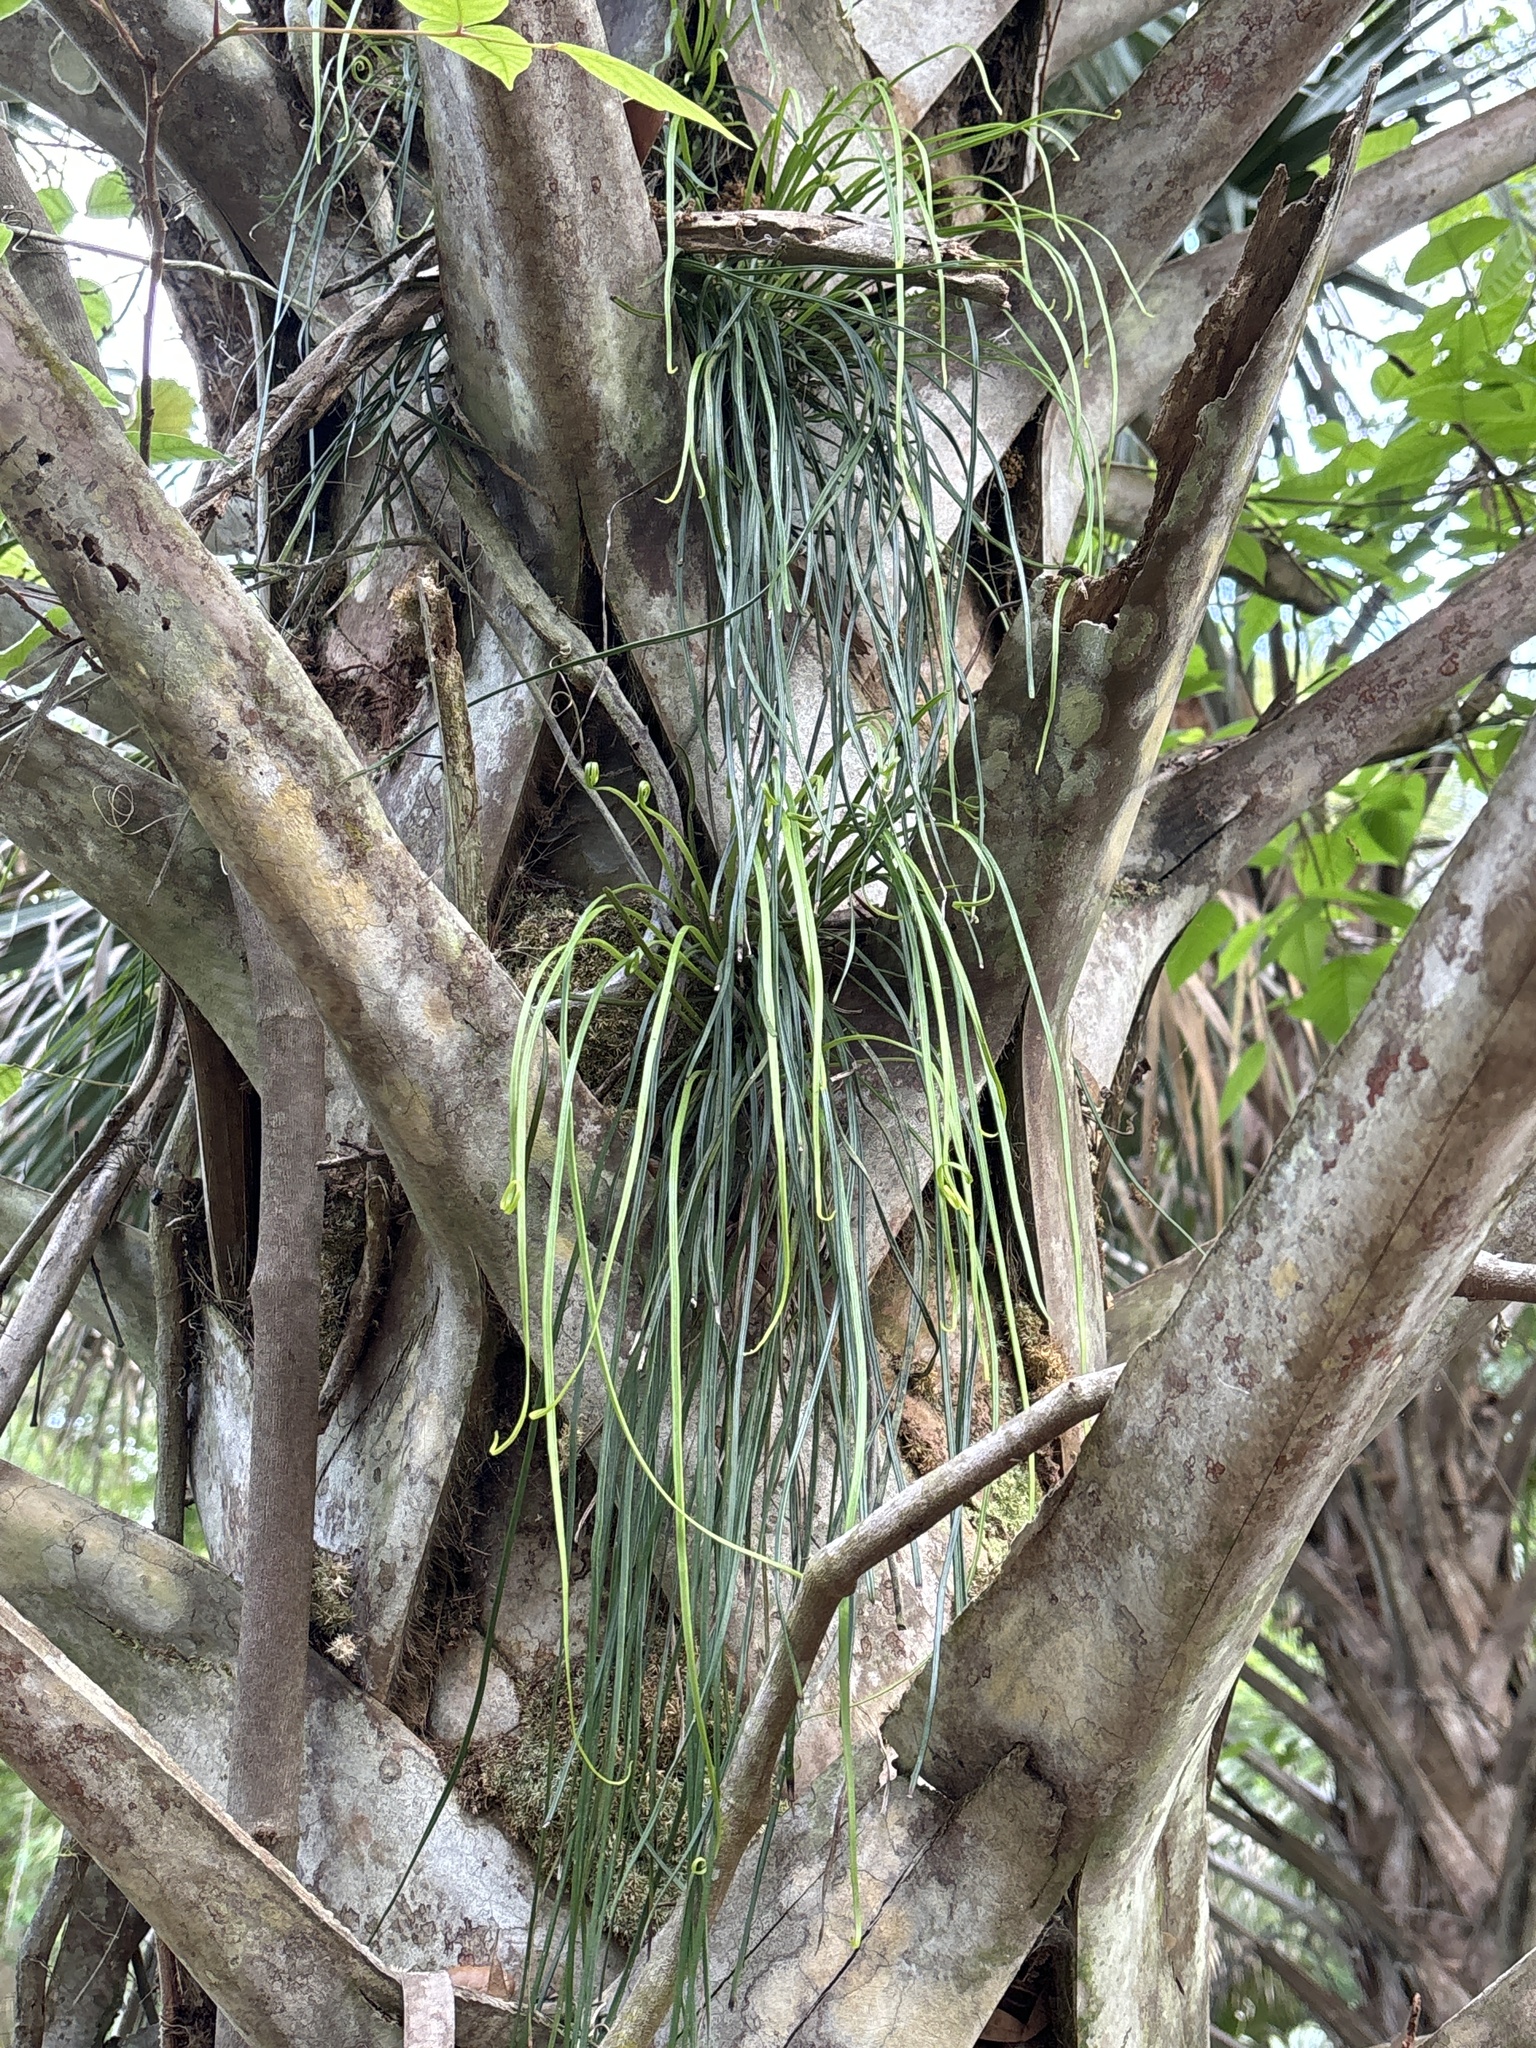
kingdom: Plantae
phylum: Tracheophyta
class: Polypodiopsida
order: Polypodiales
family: Pteridaceae
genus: Vittaria
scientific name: Vittaria lineata
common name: Shoestring fern
